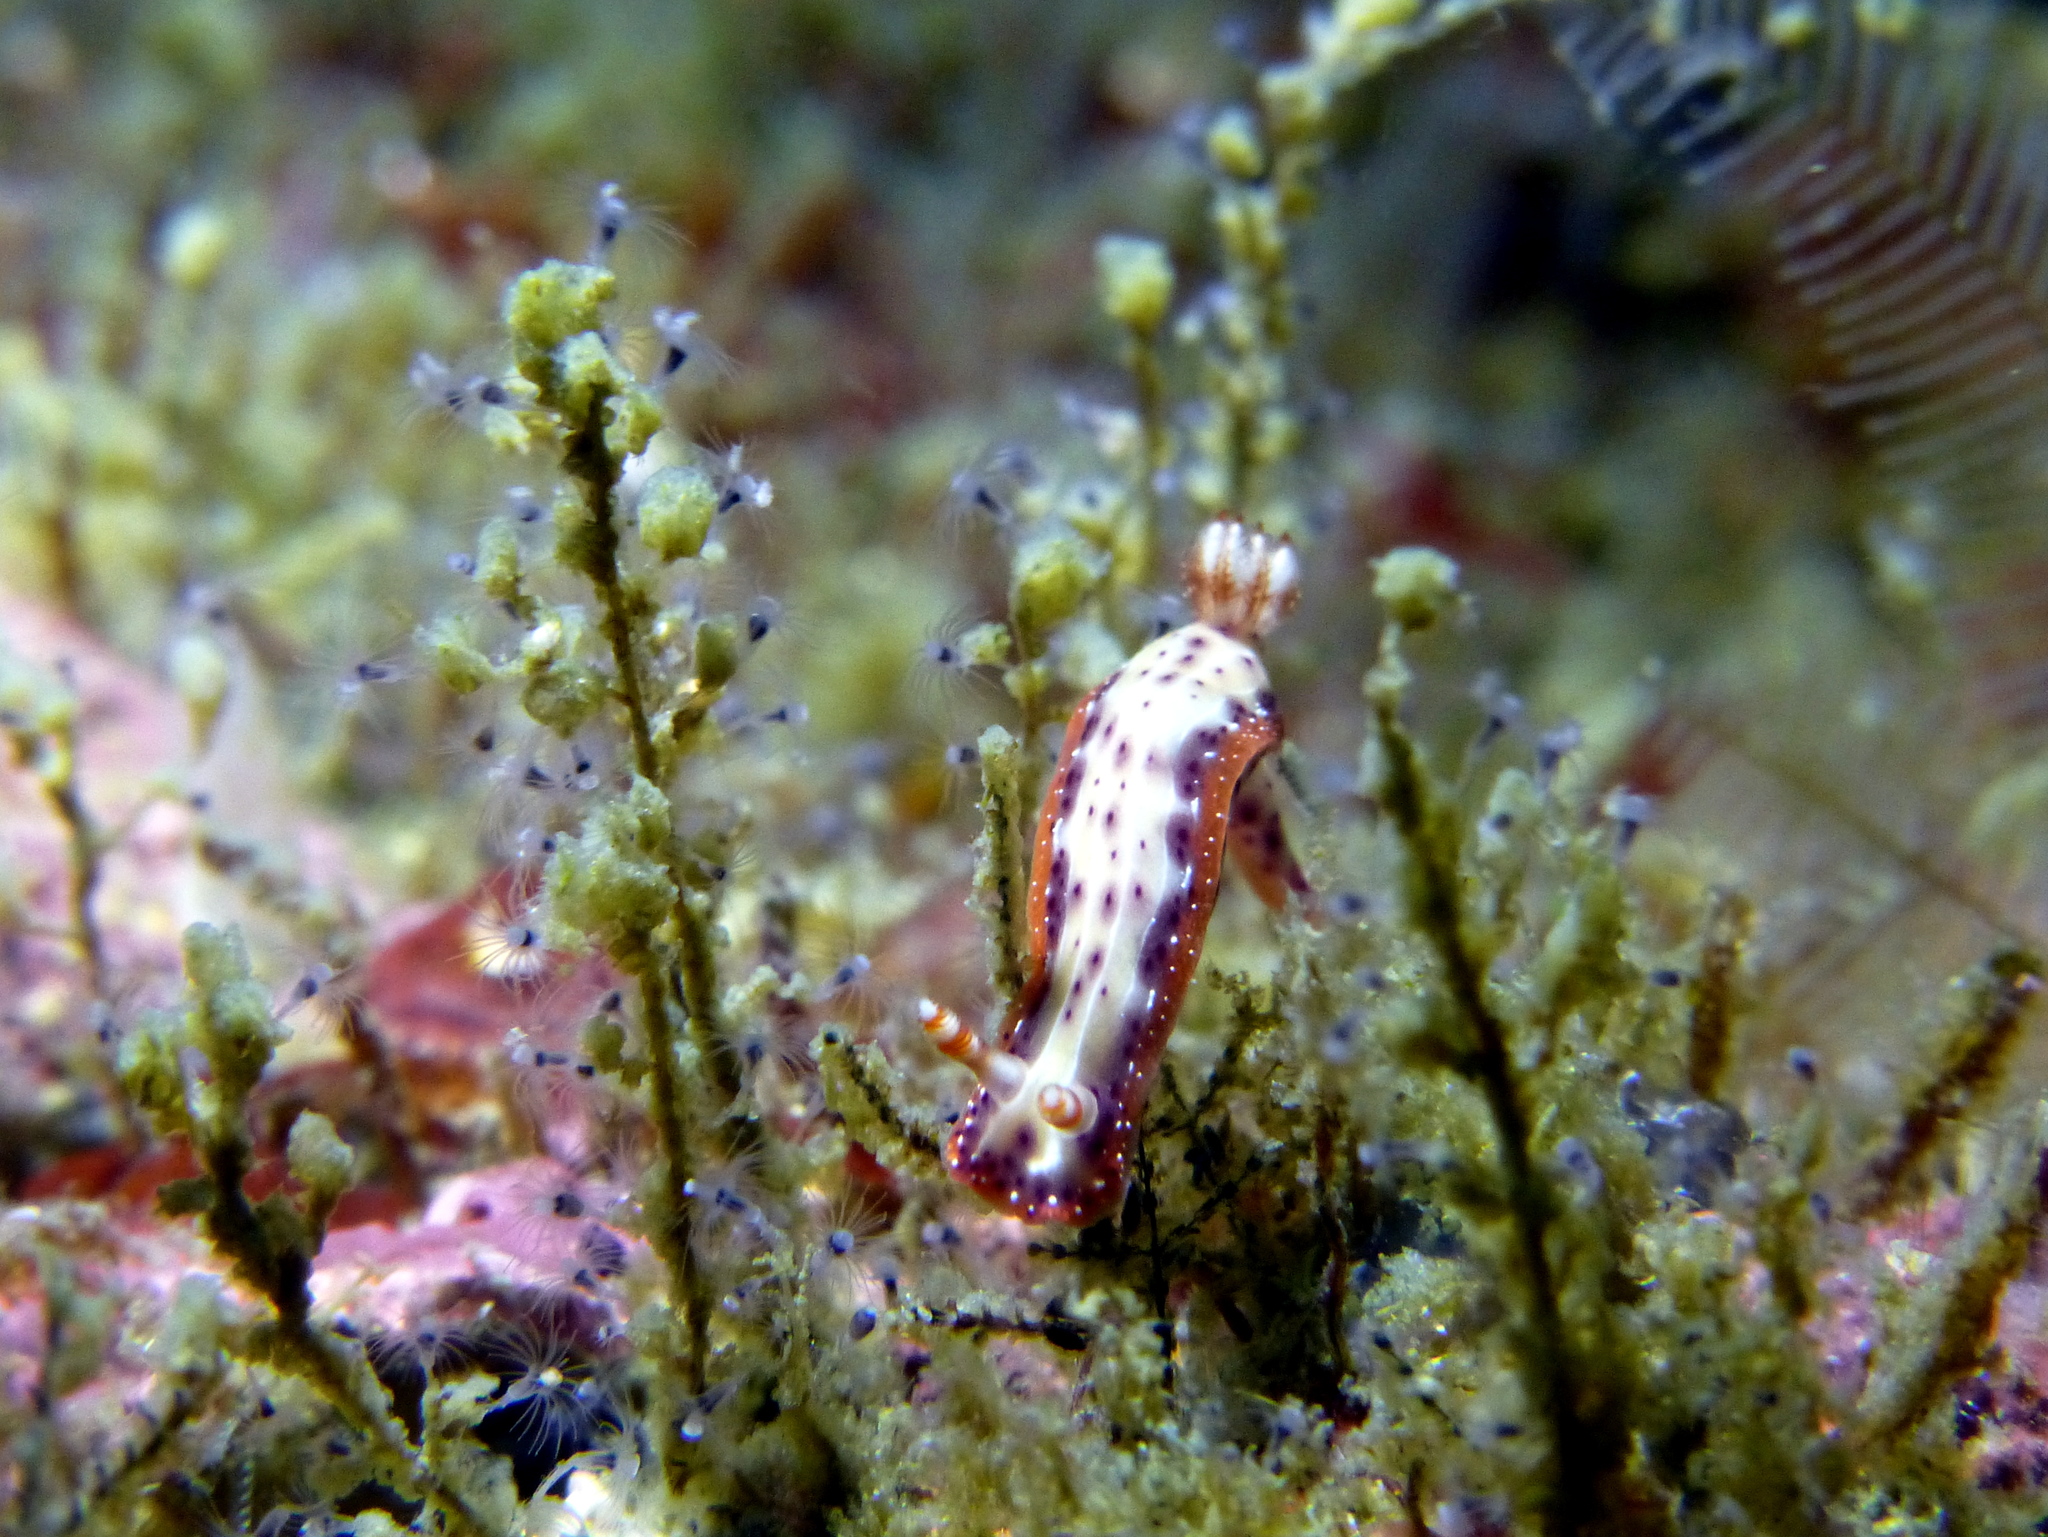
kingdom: Animalia
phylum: Mollusca
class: Gastropoda
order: Nudibranchia
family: Chromodorididae
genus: Hypselodoris
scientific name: Hypselodoris decorata
